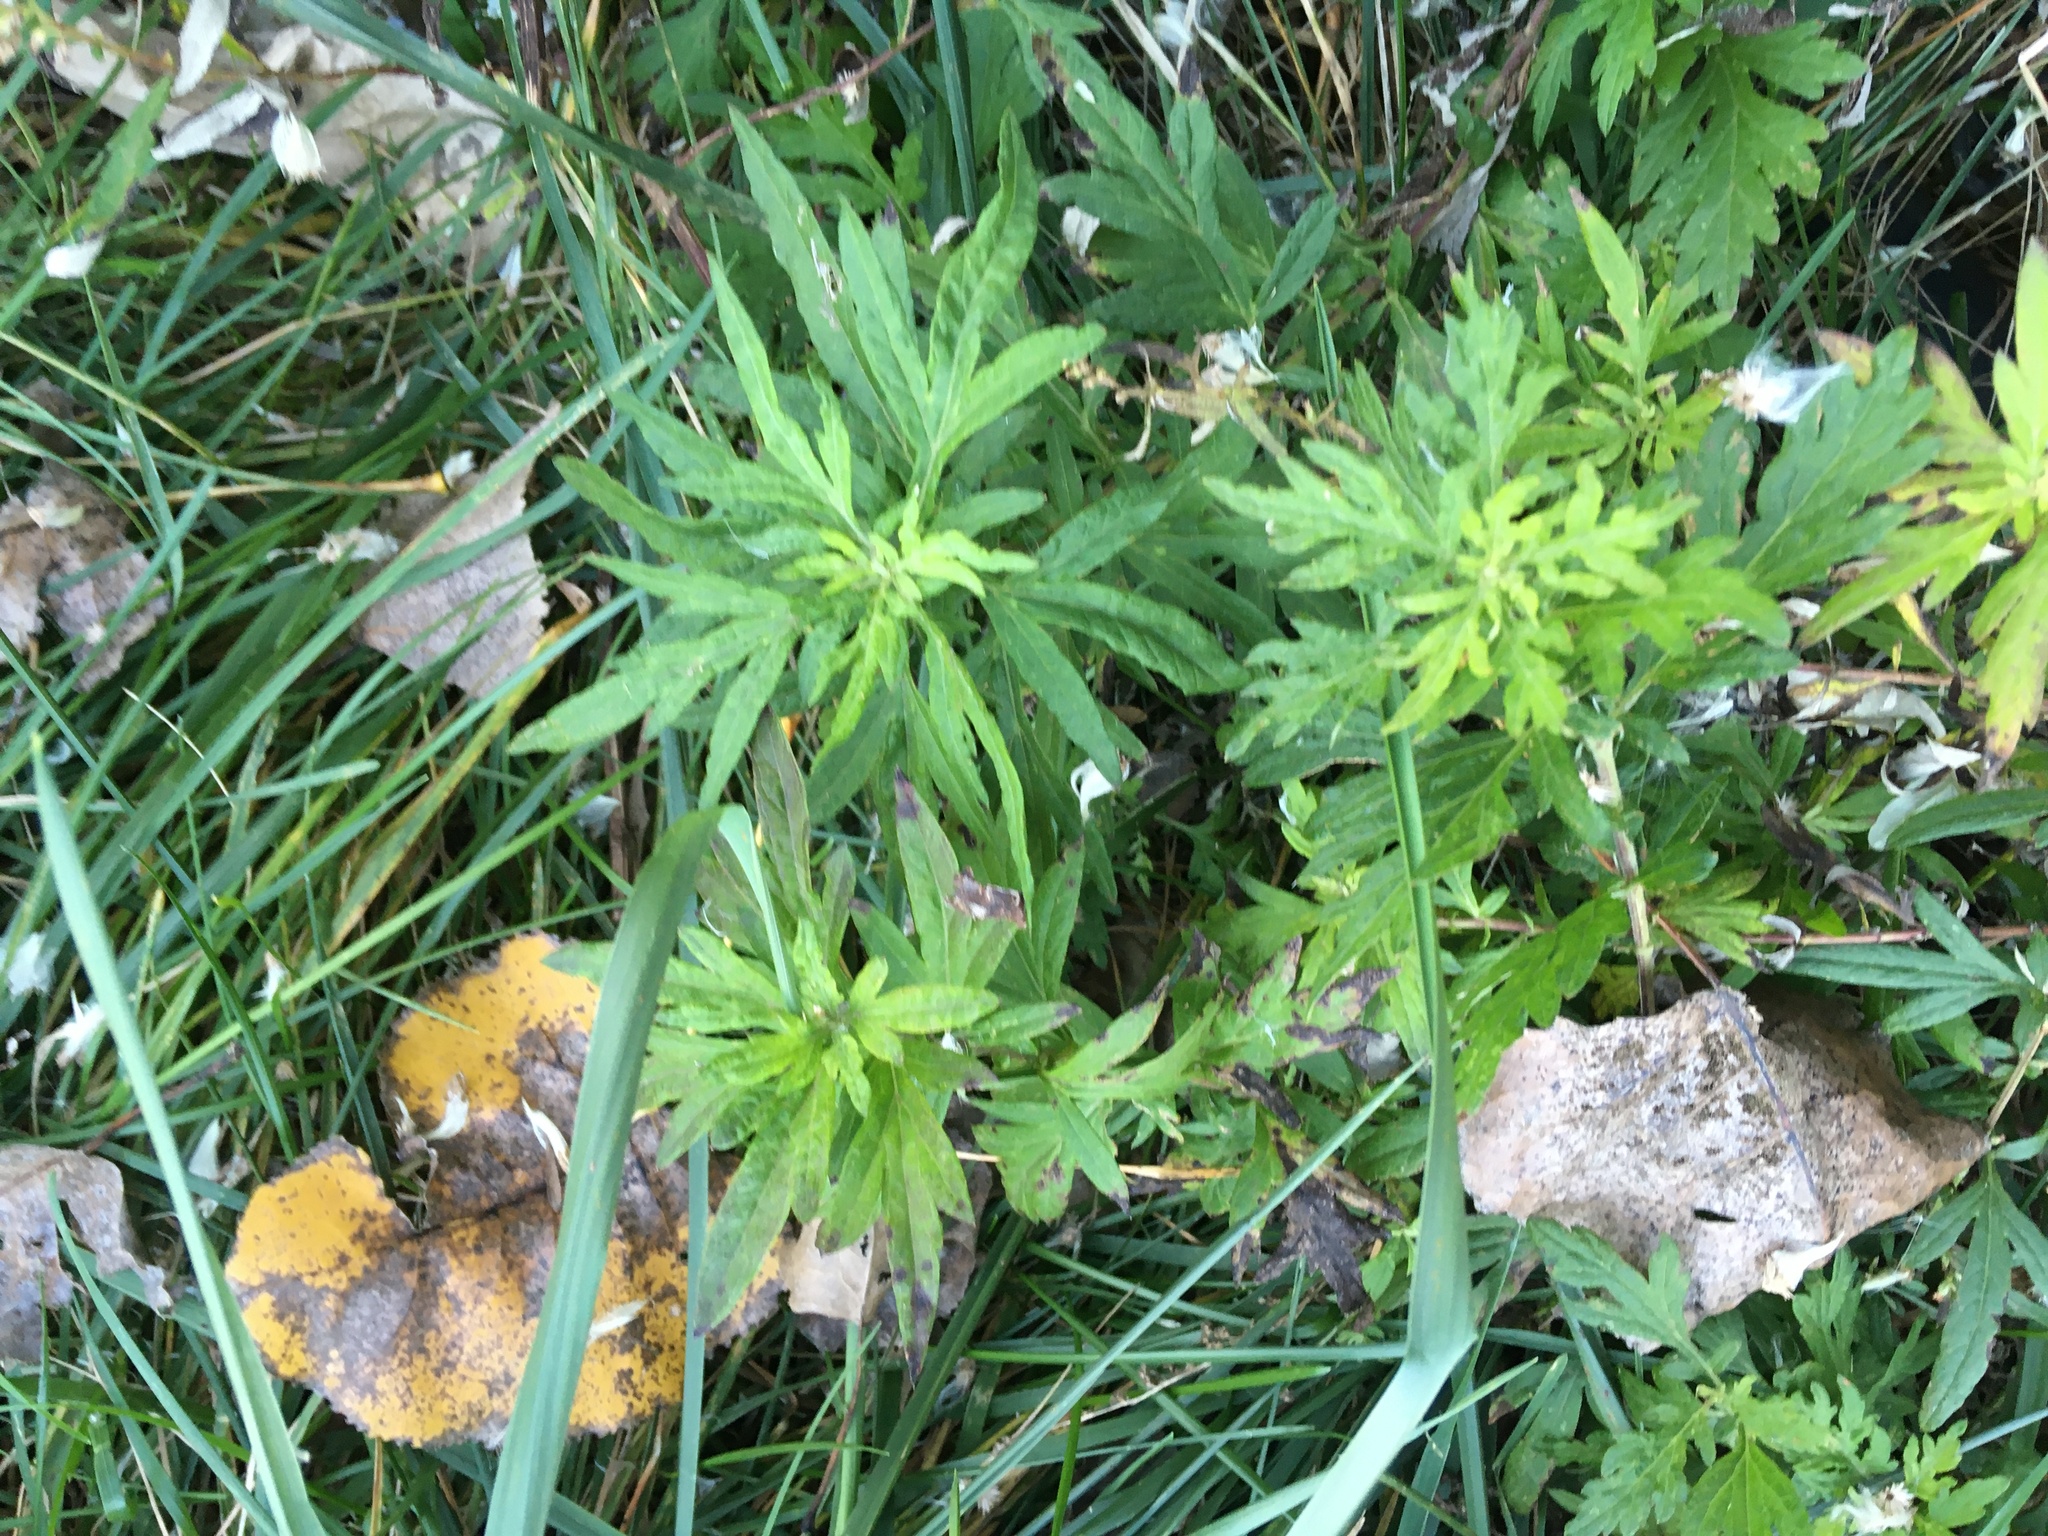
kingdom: Plantae
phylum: Tracheophyta
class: Magnoliopsida
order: Asterales
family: Asteraceae
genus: Artemisia
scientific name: Artemisia vulgaris
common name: Mugwort
